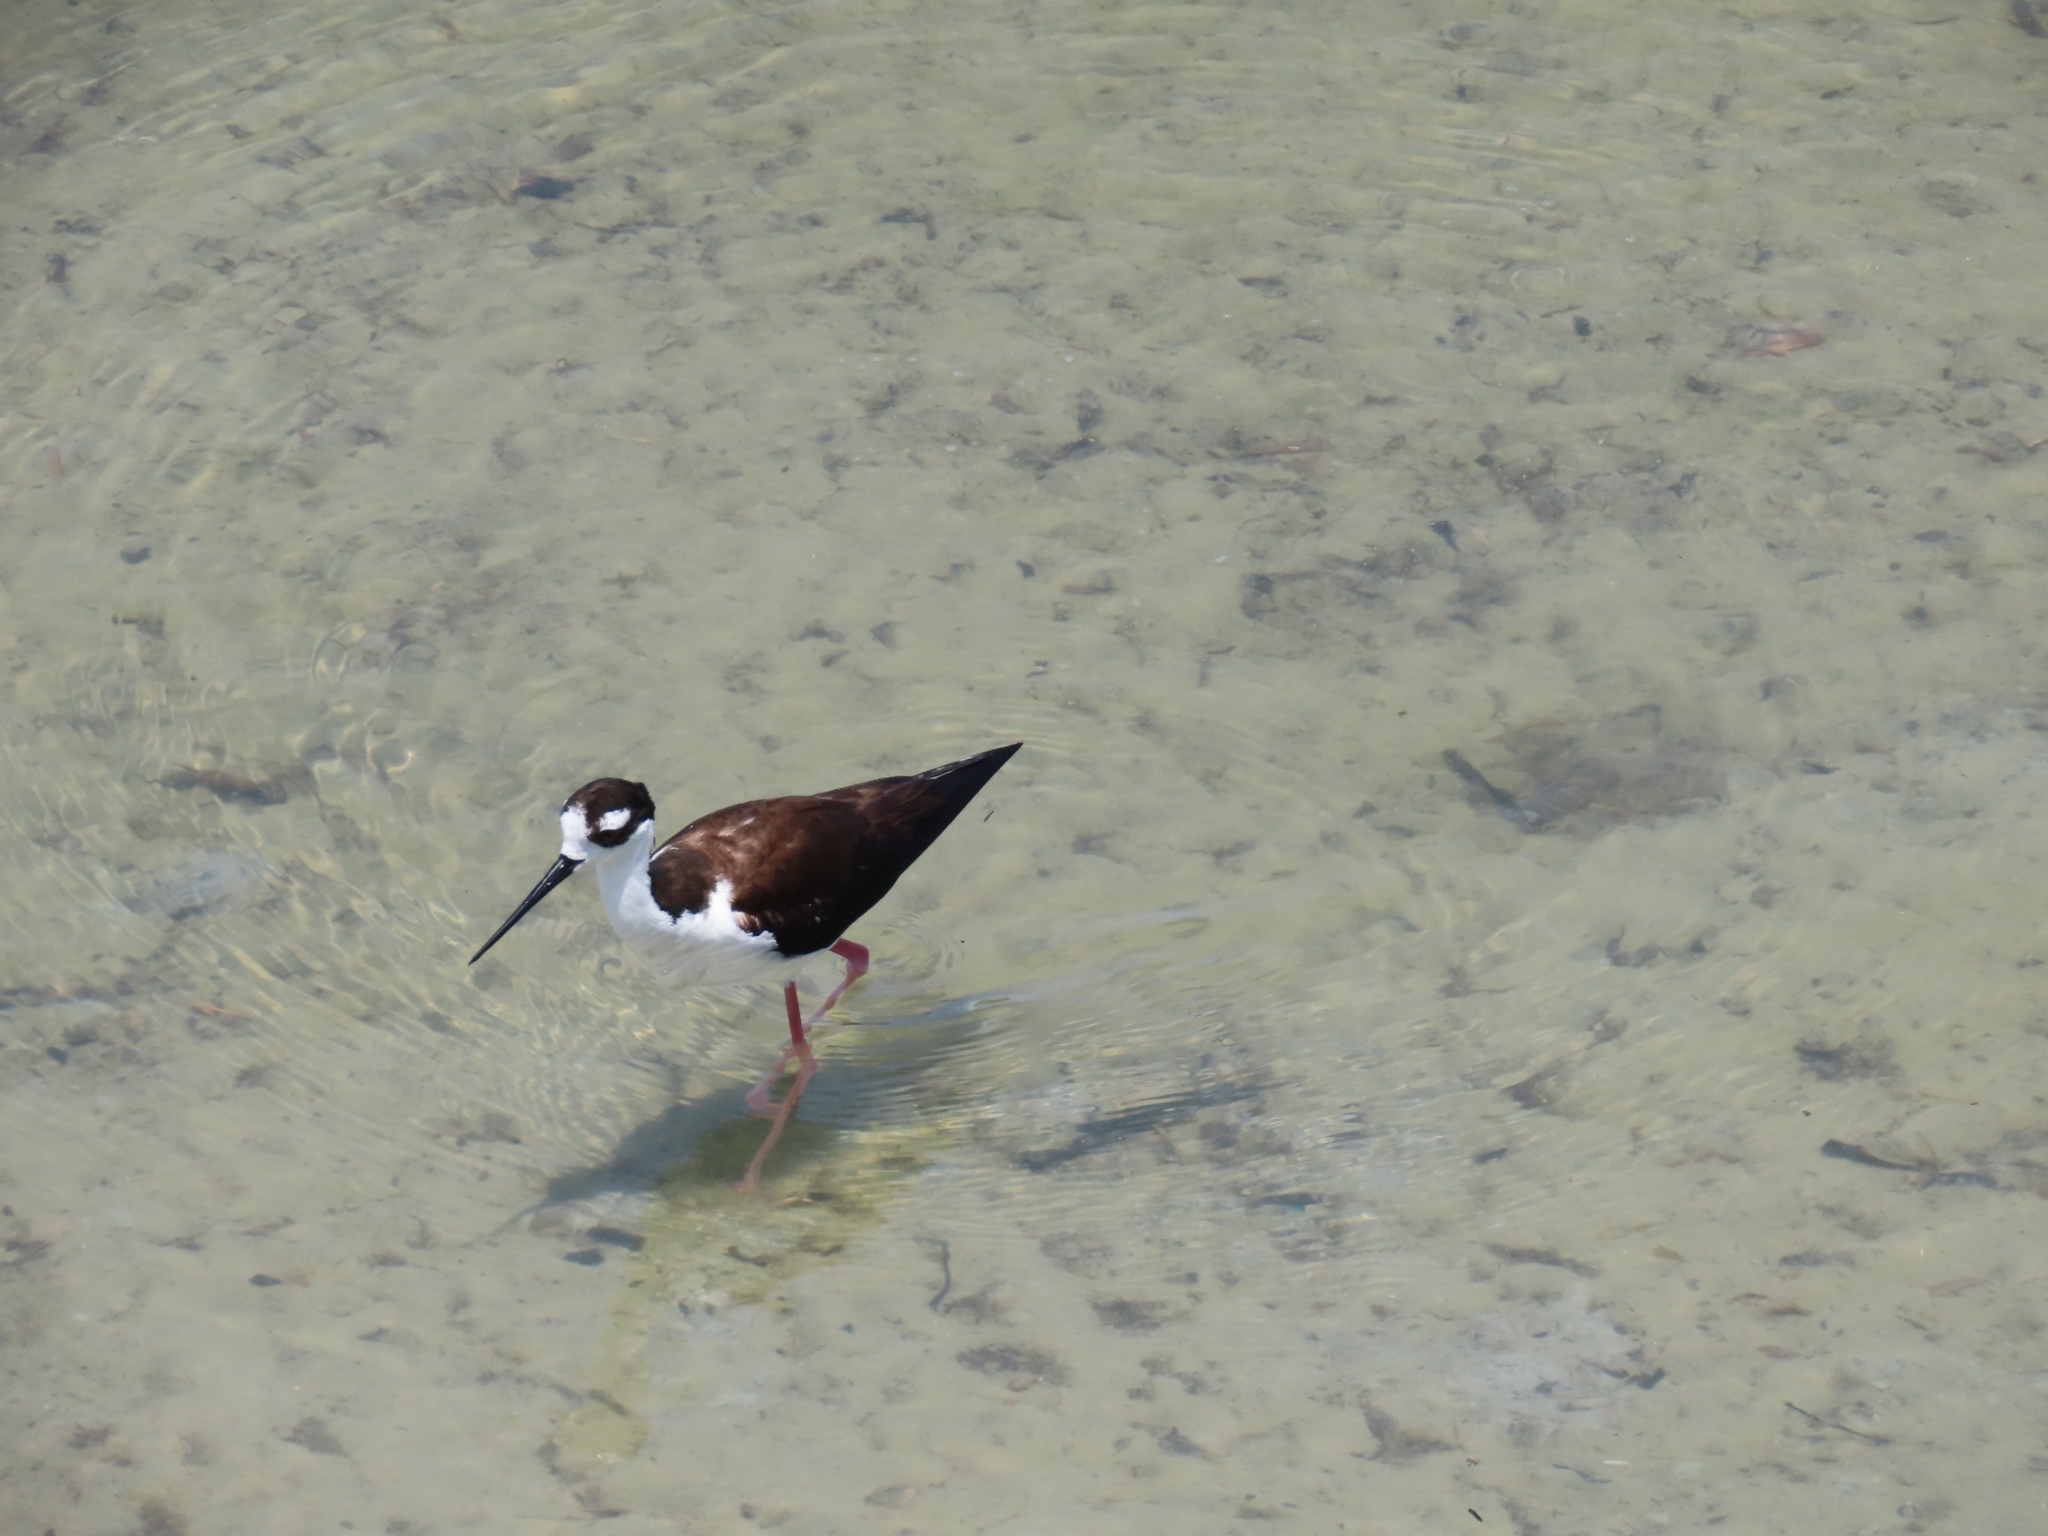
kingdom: Animalia
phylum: Chordata
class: Aves
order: Charadriiformes
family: Recurvirostridae
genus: Himantopus
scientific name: Himantopus mexicanus
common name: Black-necked stilt
